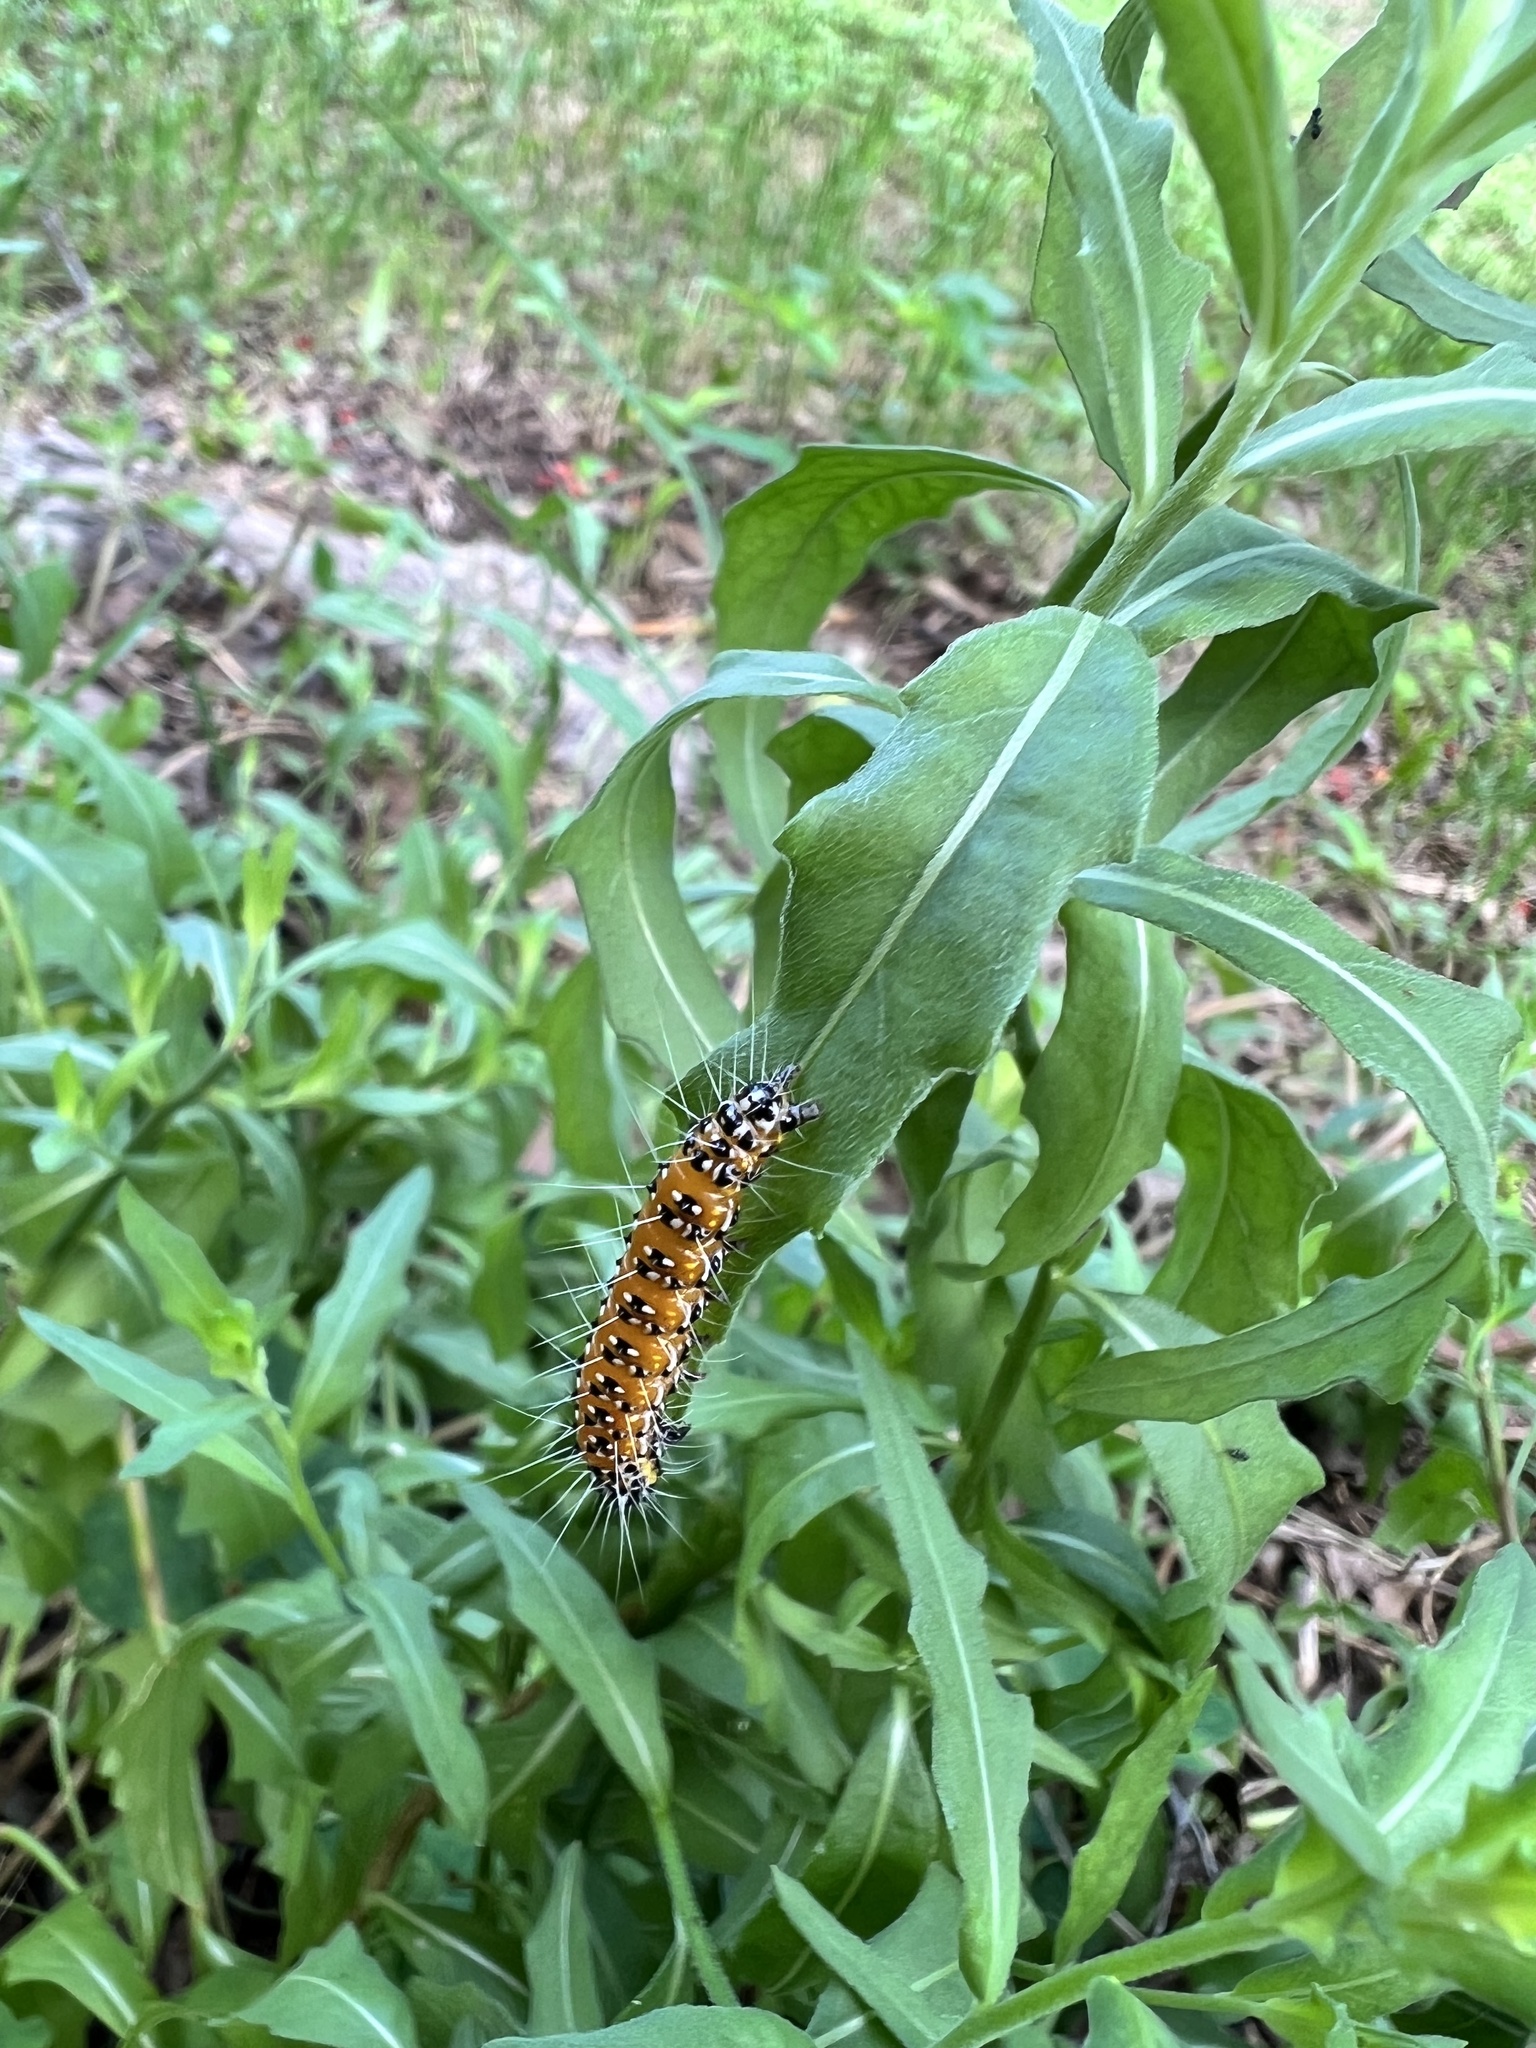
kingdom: Animalia
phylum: Arthropoda
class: Insecta
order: Lepidoptera
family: Crambidae
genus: Uresiphita
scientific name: Uresiphita reversalis
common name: Genista broom moth
